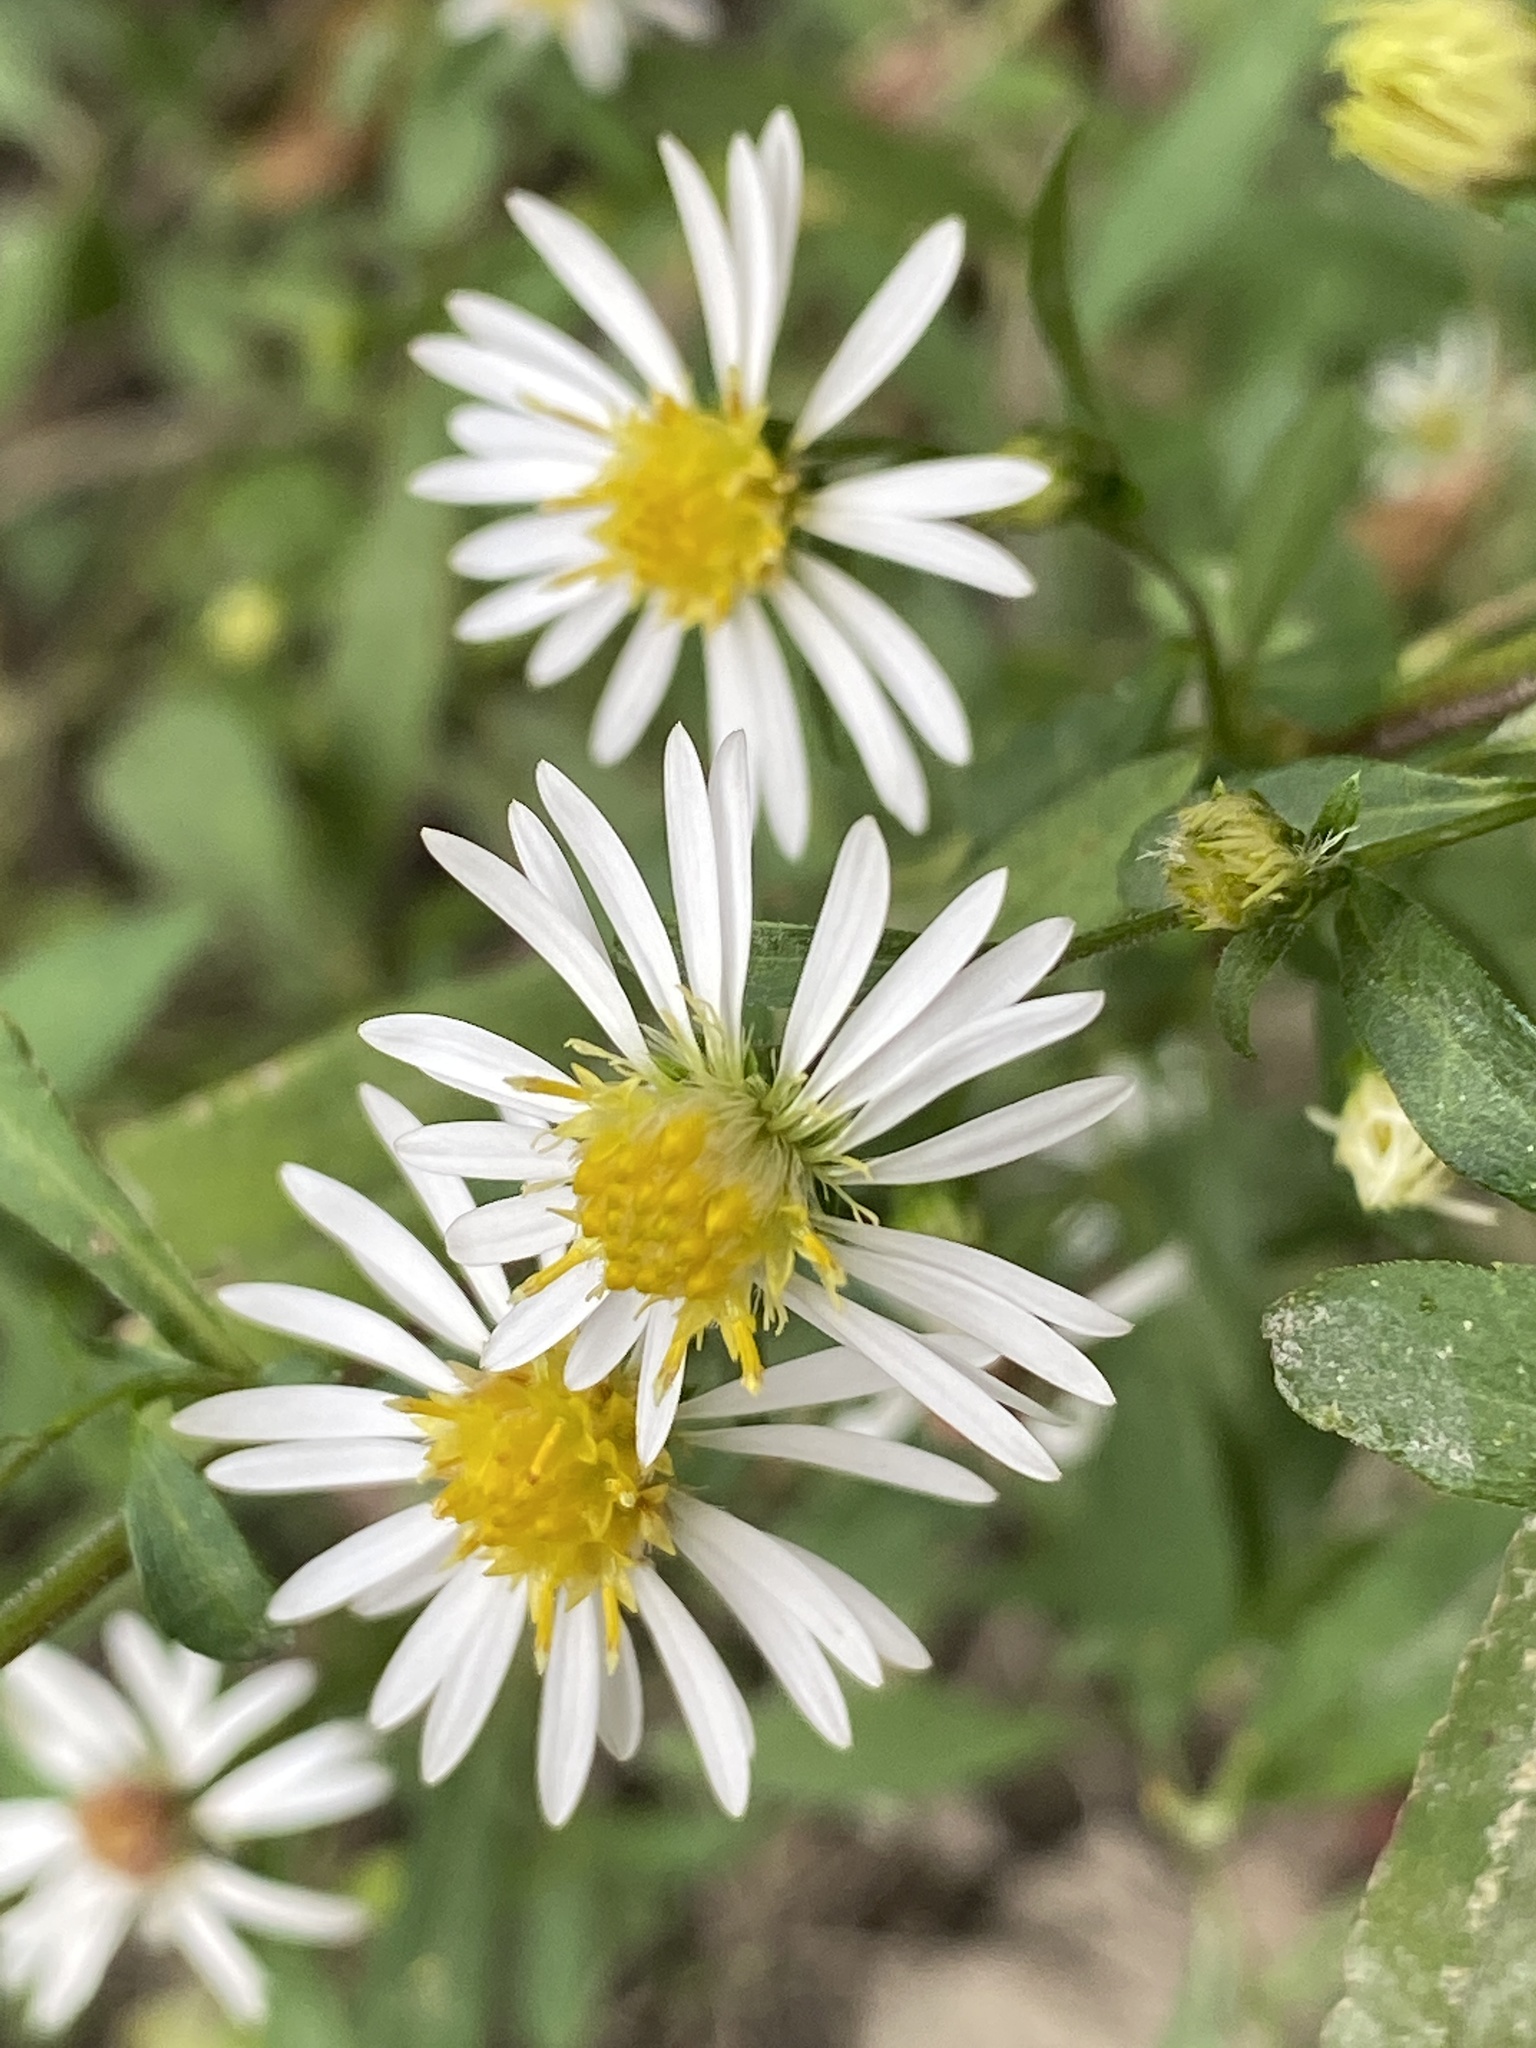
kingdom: Plantae
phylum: Tracheophyta
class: Magnoliopsida
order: Asterales
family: Asteraceae
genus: Symphyotrichum
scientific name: Symphyotrichum lanceolatum
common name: Panicled aster
